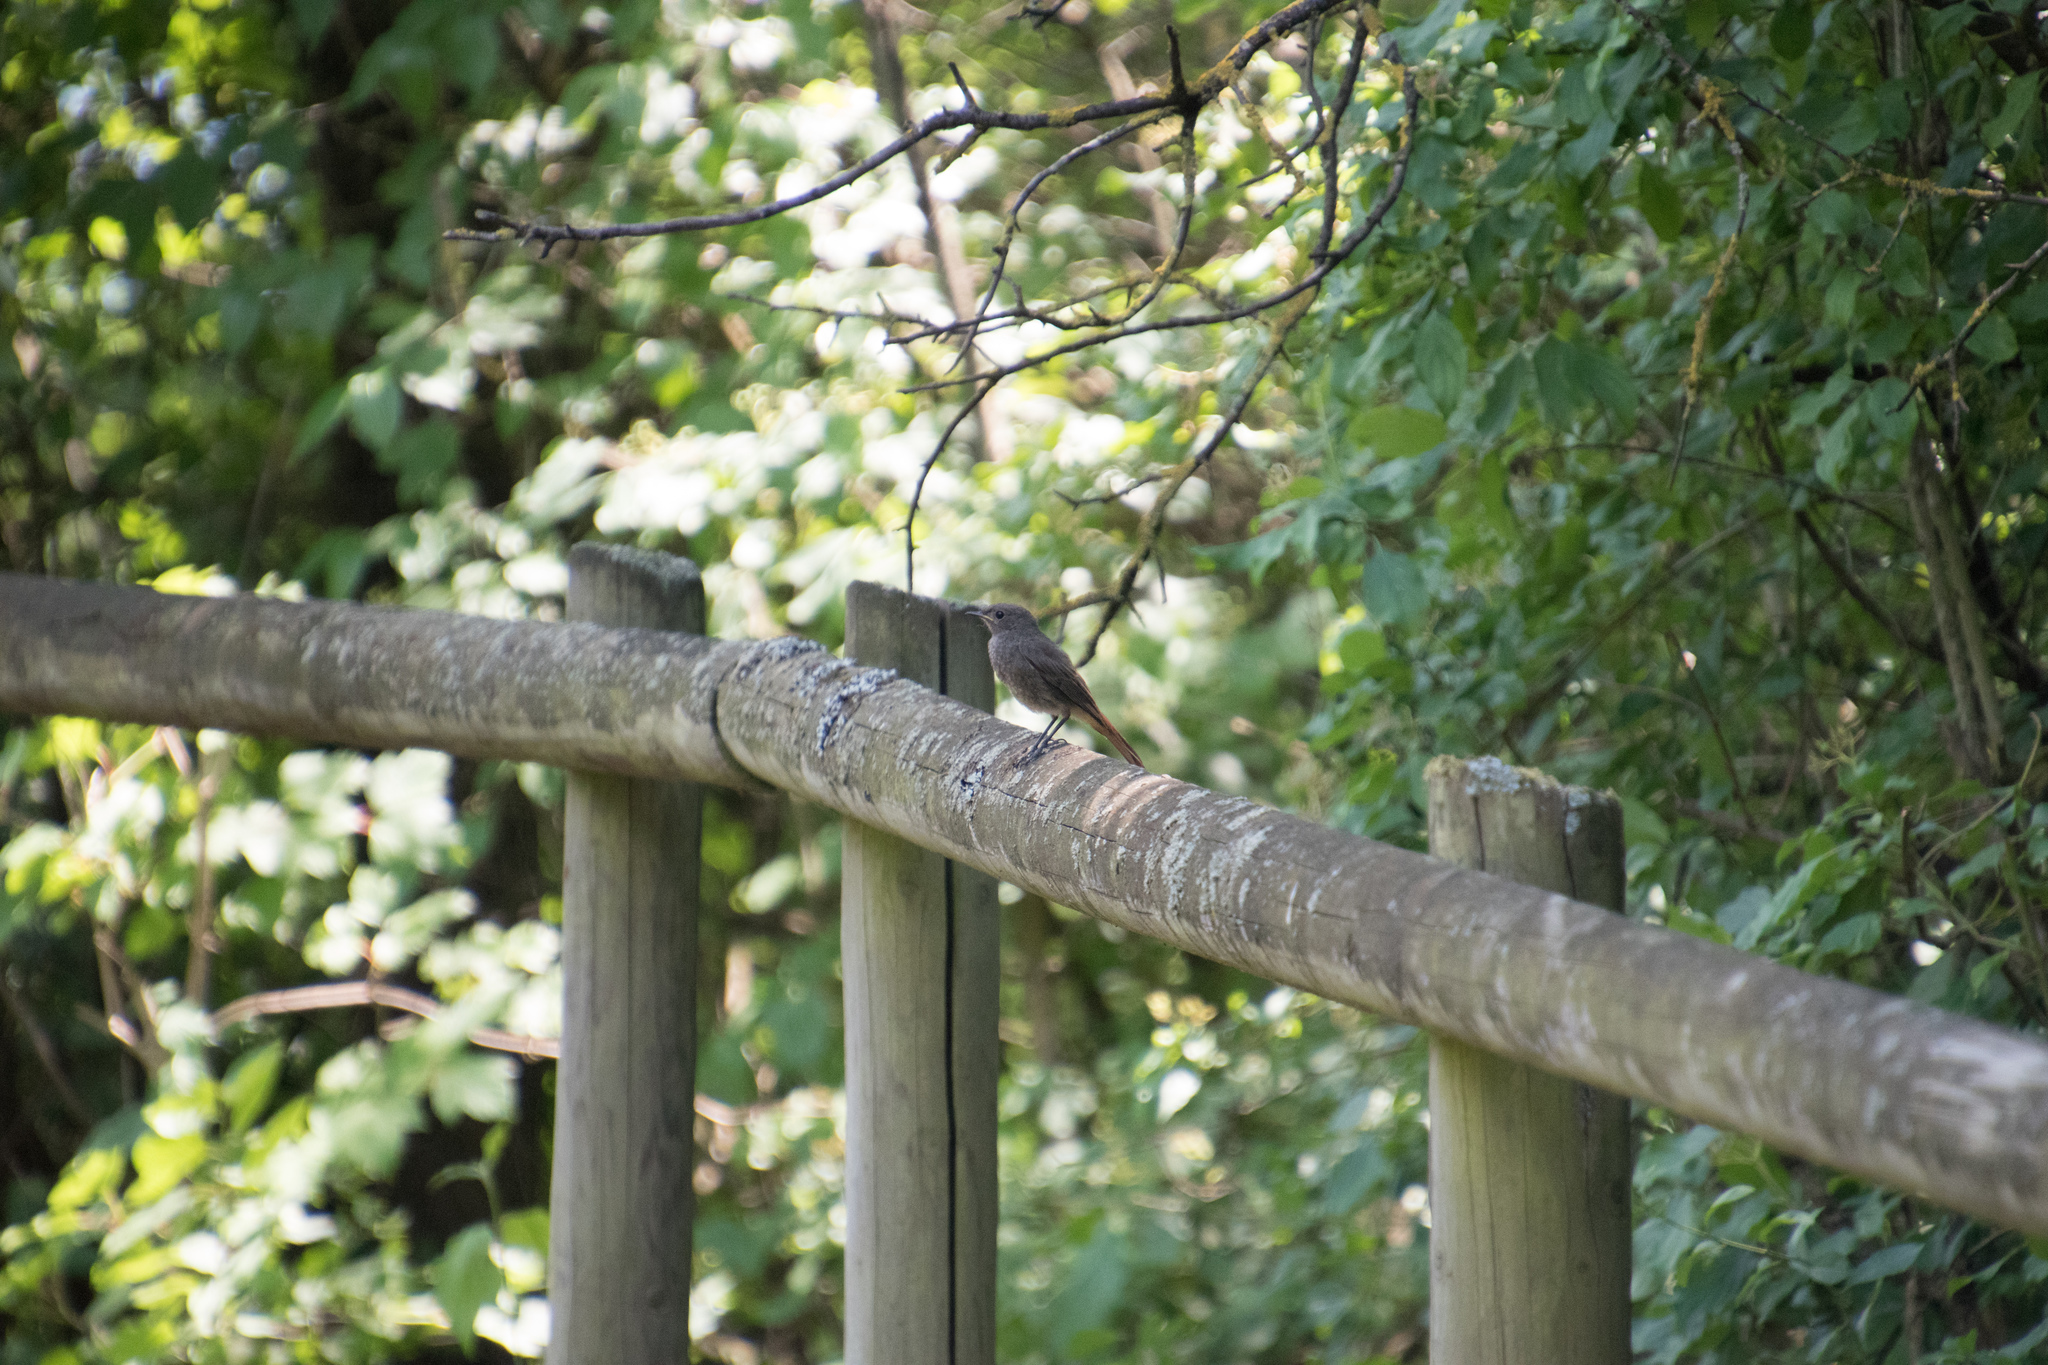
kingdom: Animalia
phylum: Chordata
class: Aves
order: Passeriformes
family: Muscicapidae
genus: Phoenicurus
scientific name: Phoenicurus ochruros
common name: Black redstart
